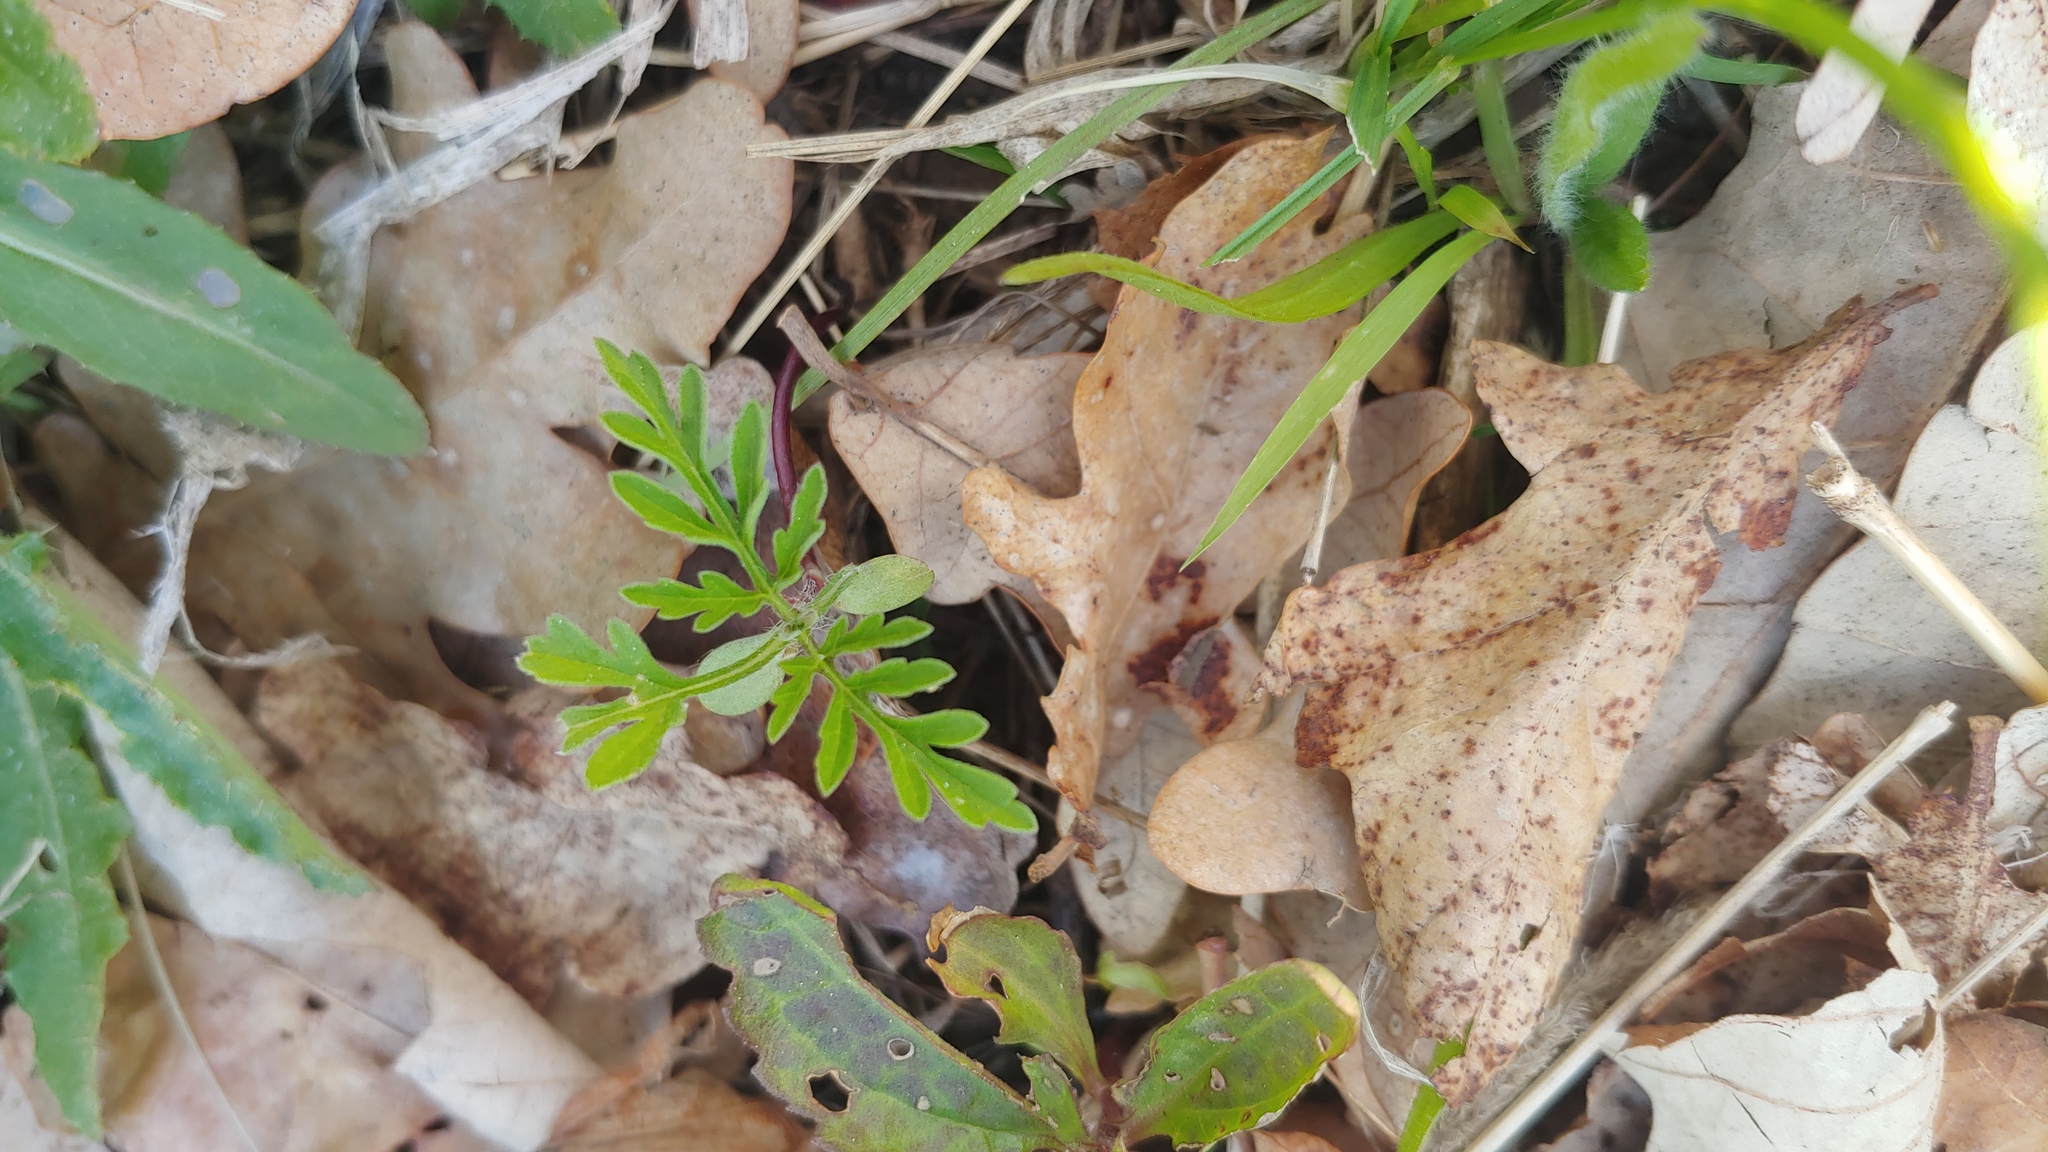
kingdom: Plantae
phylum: Tracheophyta
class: Magnoliopsida
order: Asterales
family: Asteraceae
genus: Ambrosia
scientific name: Ambrosia artemisiifolia
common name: Annual ragweed
